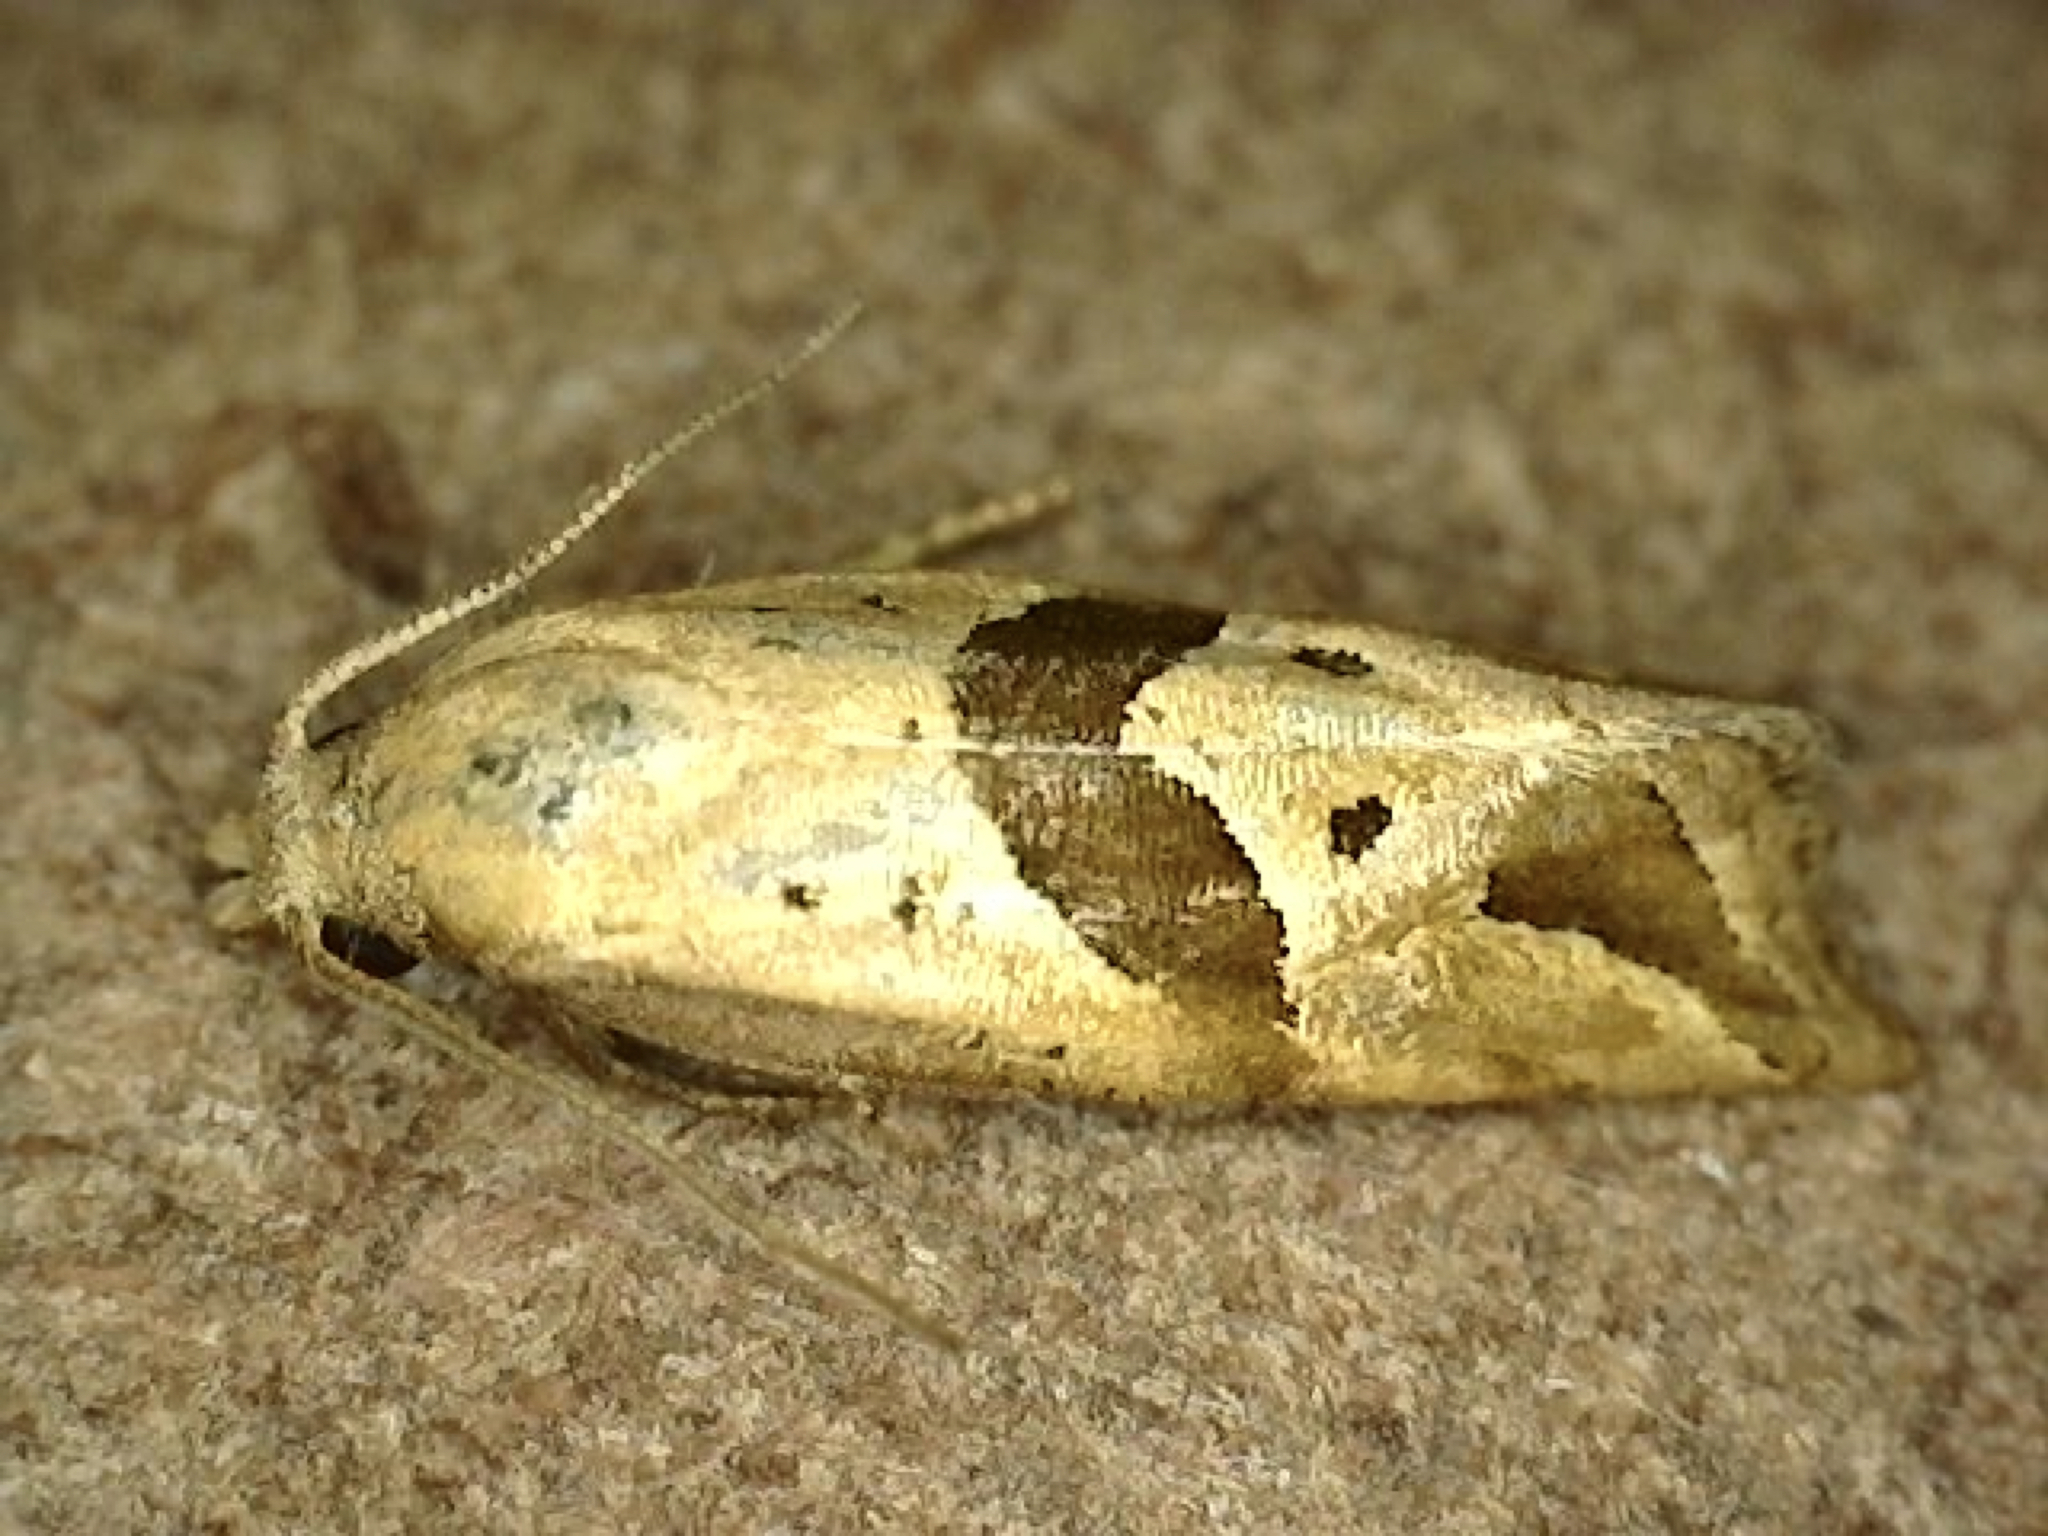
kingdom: Animalia
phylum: Arthropoda
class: Insecta
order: Lepidoptera
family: Tortricidae
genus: Eugnosta
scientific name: Eugnosta sartana
